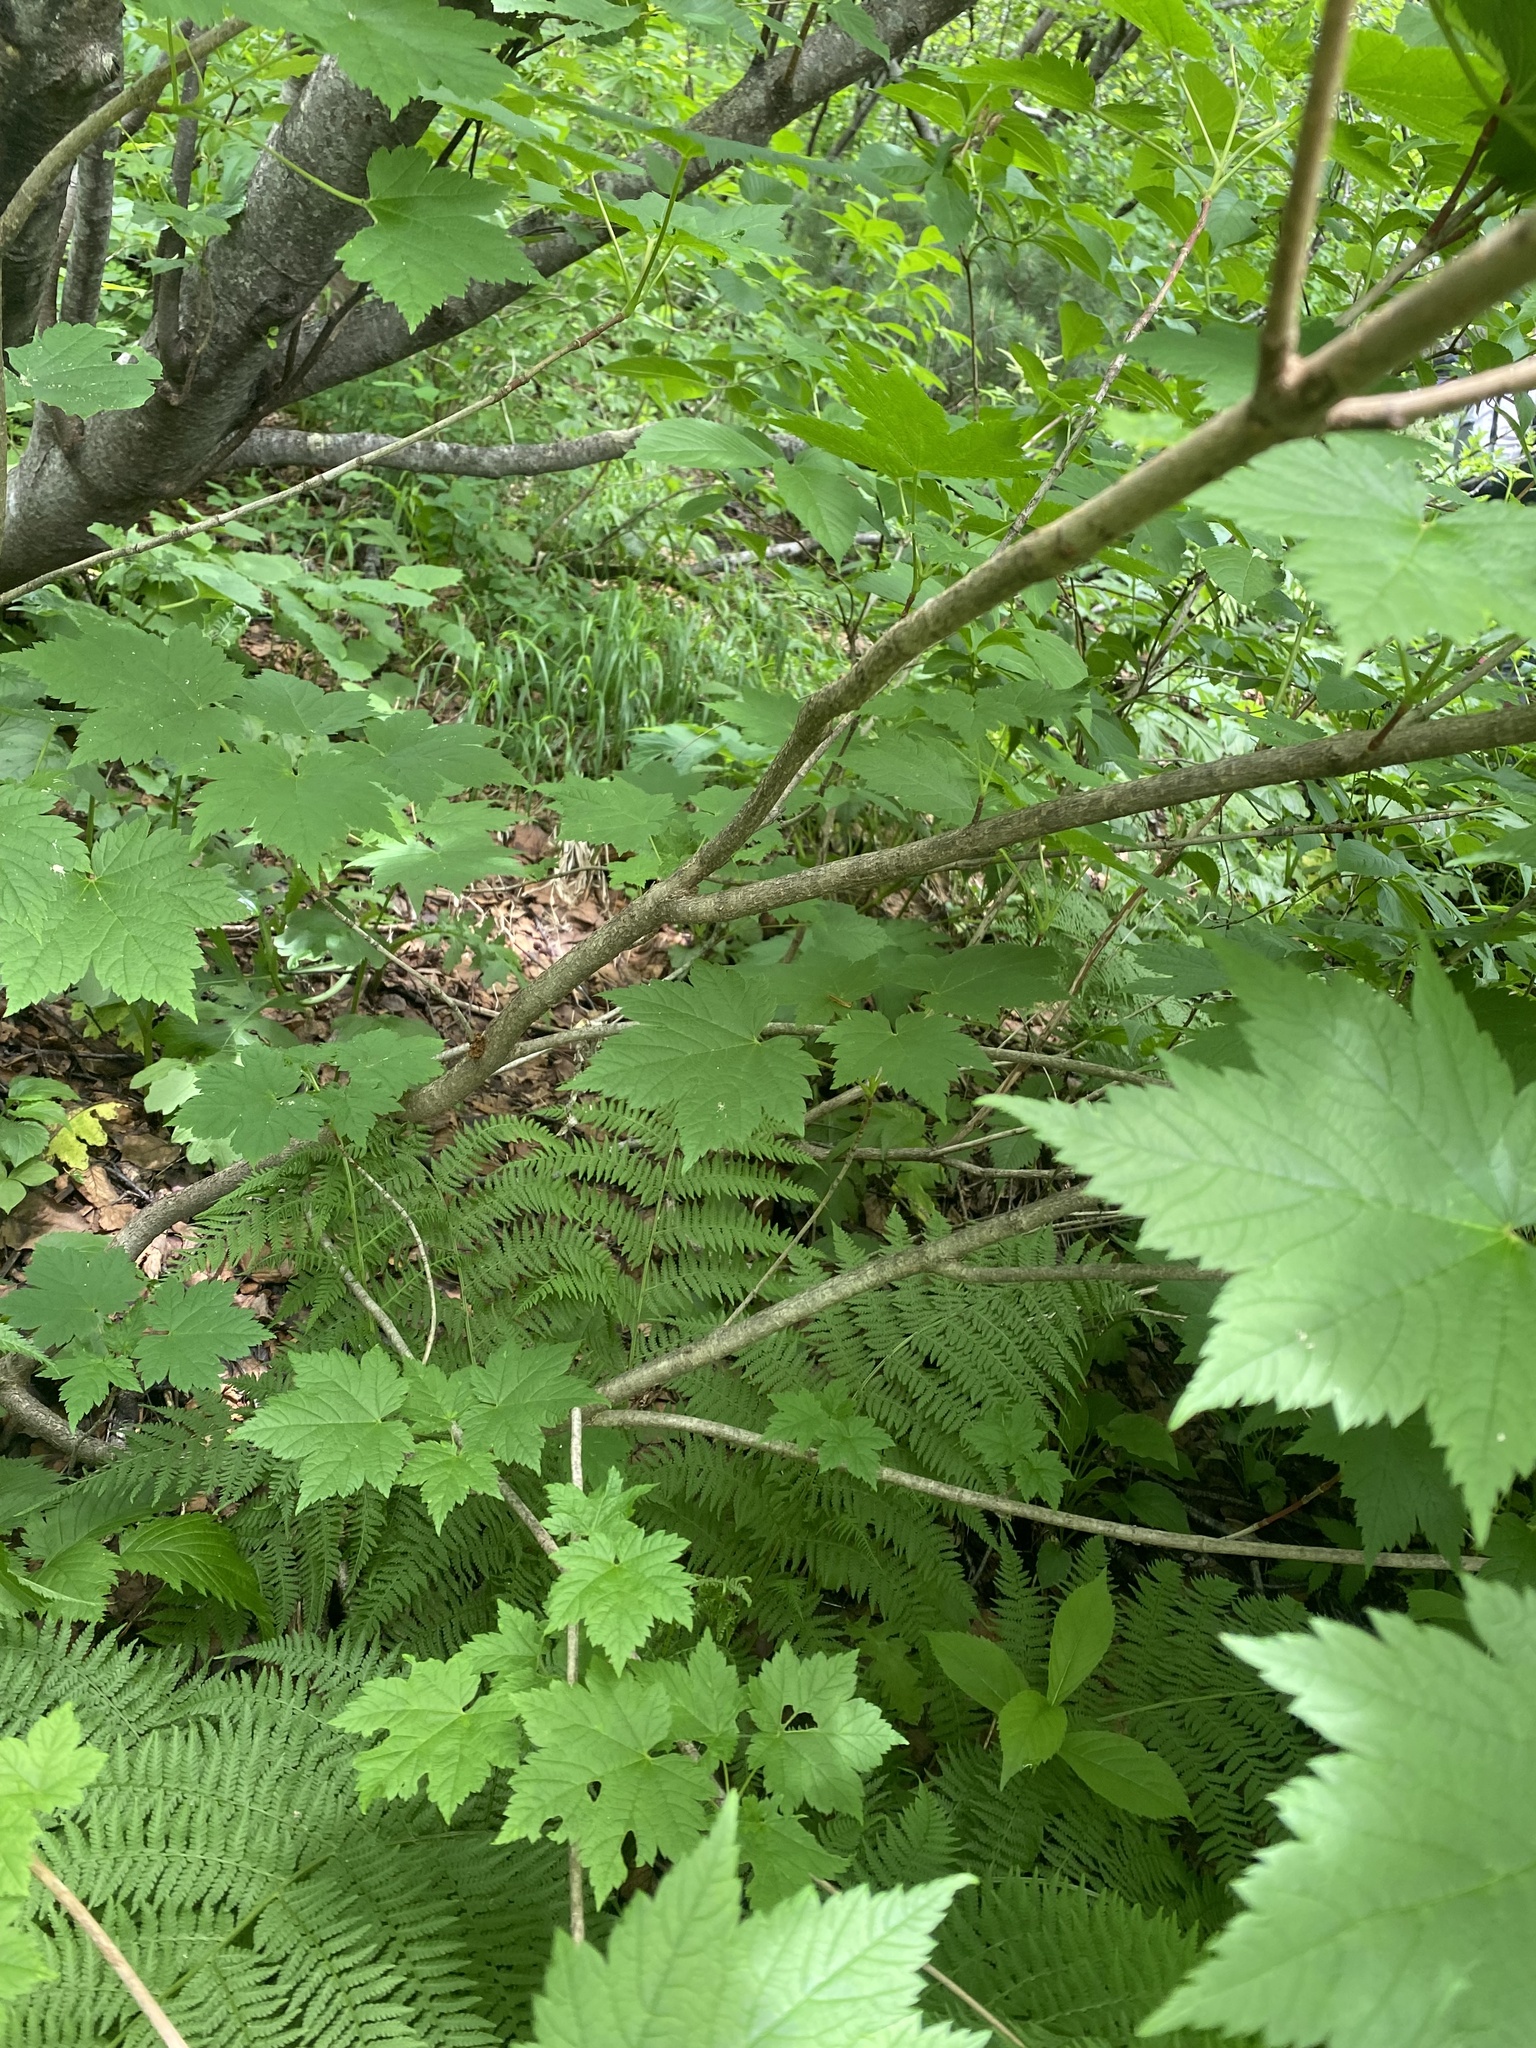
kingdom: Plantae
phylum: Tracheophyta
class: Magnoliopsida
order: Sapindales
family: Sapindaceae
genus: Acer
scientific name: Acer ukurunduense
